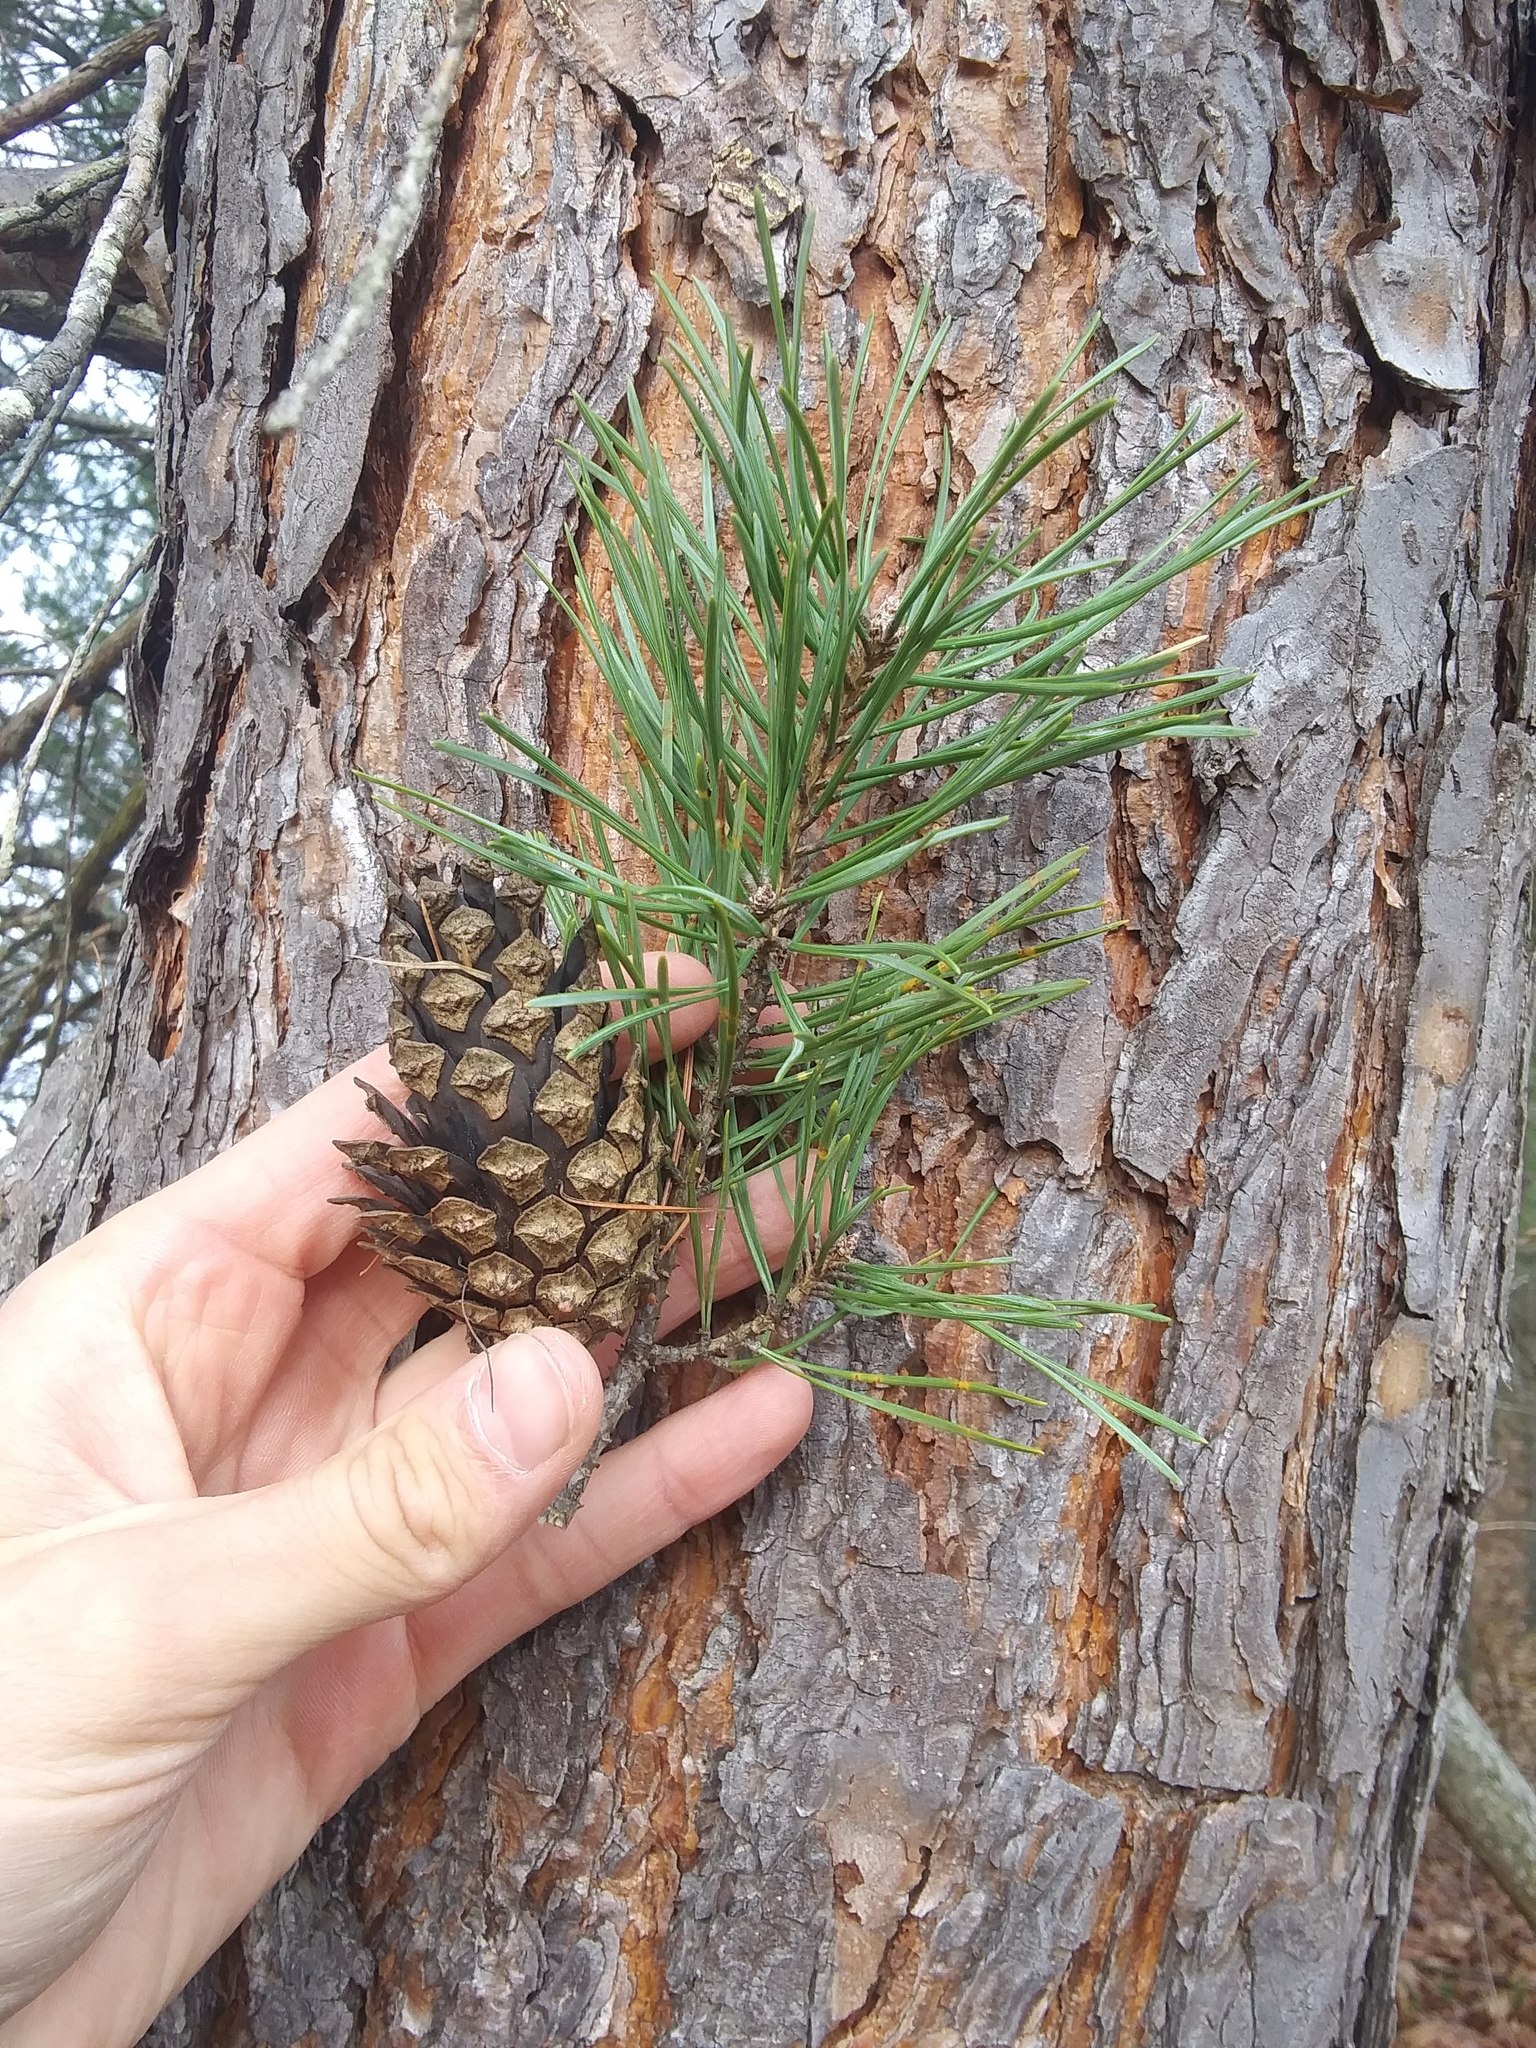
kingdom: Plantae
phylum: Tracheophyta
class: Pinopsida
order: Pinales
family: Pinaceae
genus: Pinus
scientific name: Pinus sylvestris
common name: Scots pine
